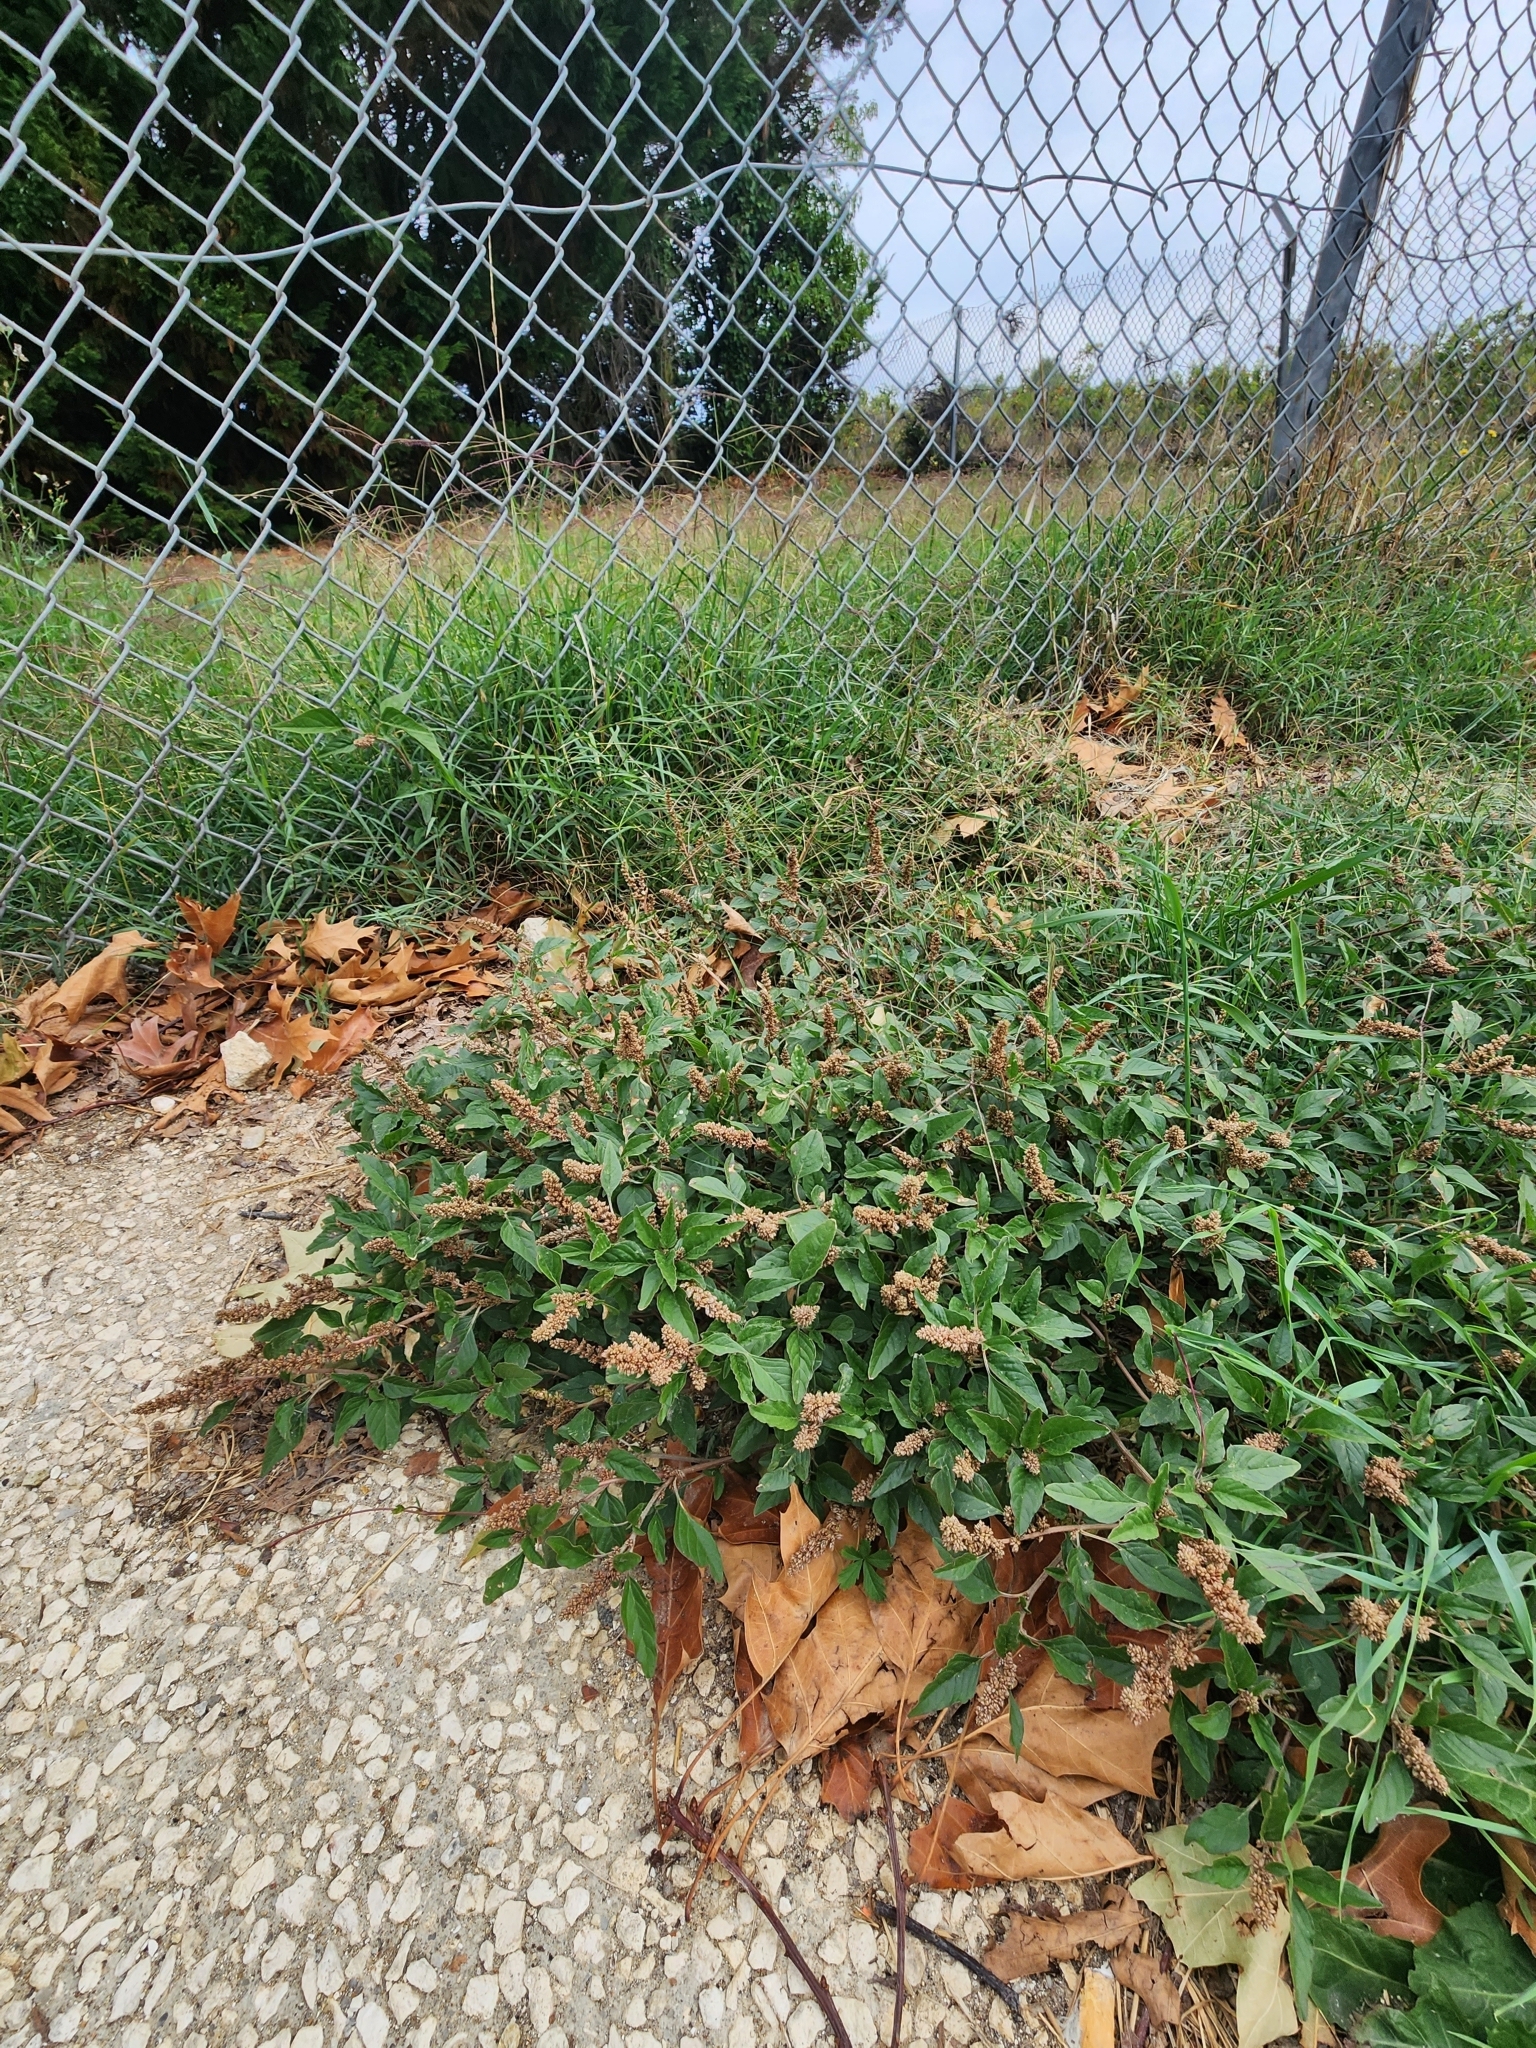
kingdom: Plantae
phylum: Tracheophyta
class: Magnoliopsida
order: Caryophyllales
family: Amaranthaceae
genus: Amaranthus
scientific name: Amaranthus deflexus
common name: Perennial pigweed
